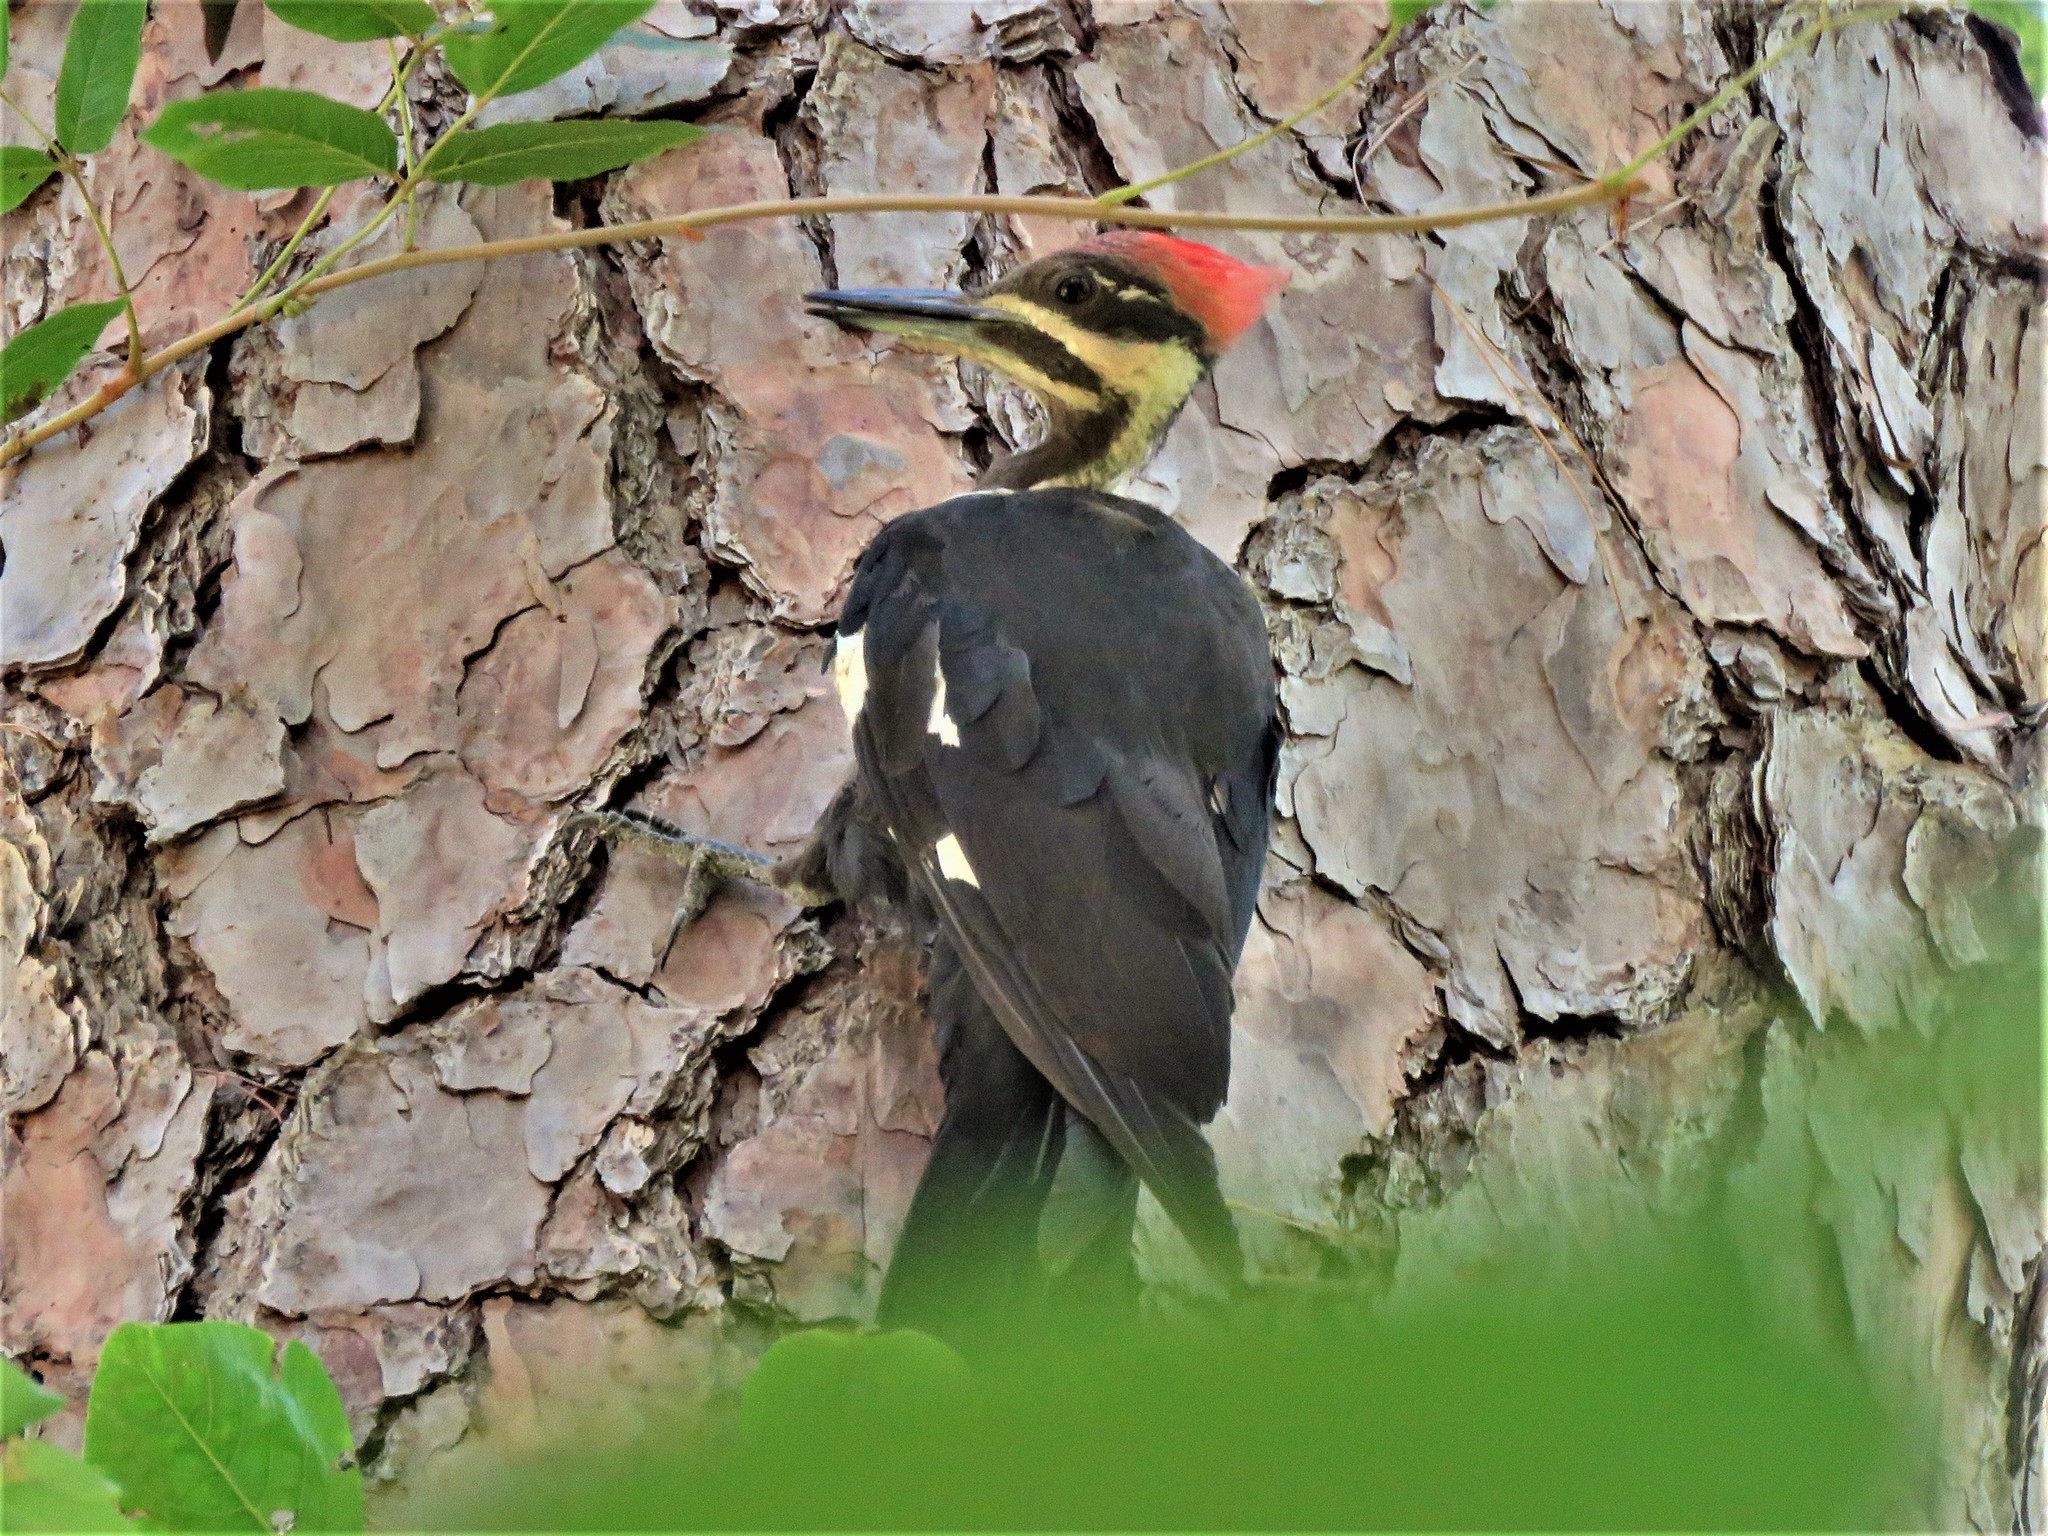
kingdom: Animalia
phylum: Chordata
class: Aves
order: Piciformes
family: Picidae
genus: Dryocopus
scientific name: Dryocopus pileatus
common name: Pileated woodpecker
